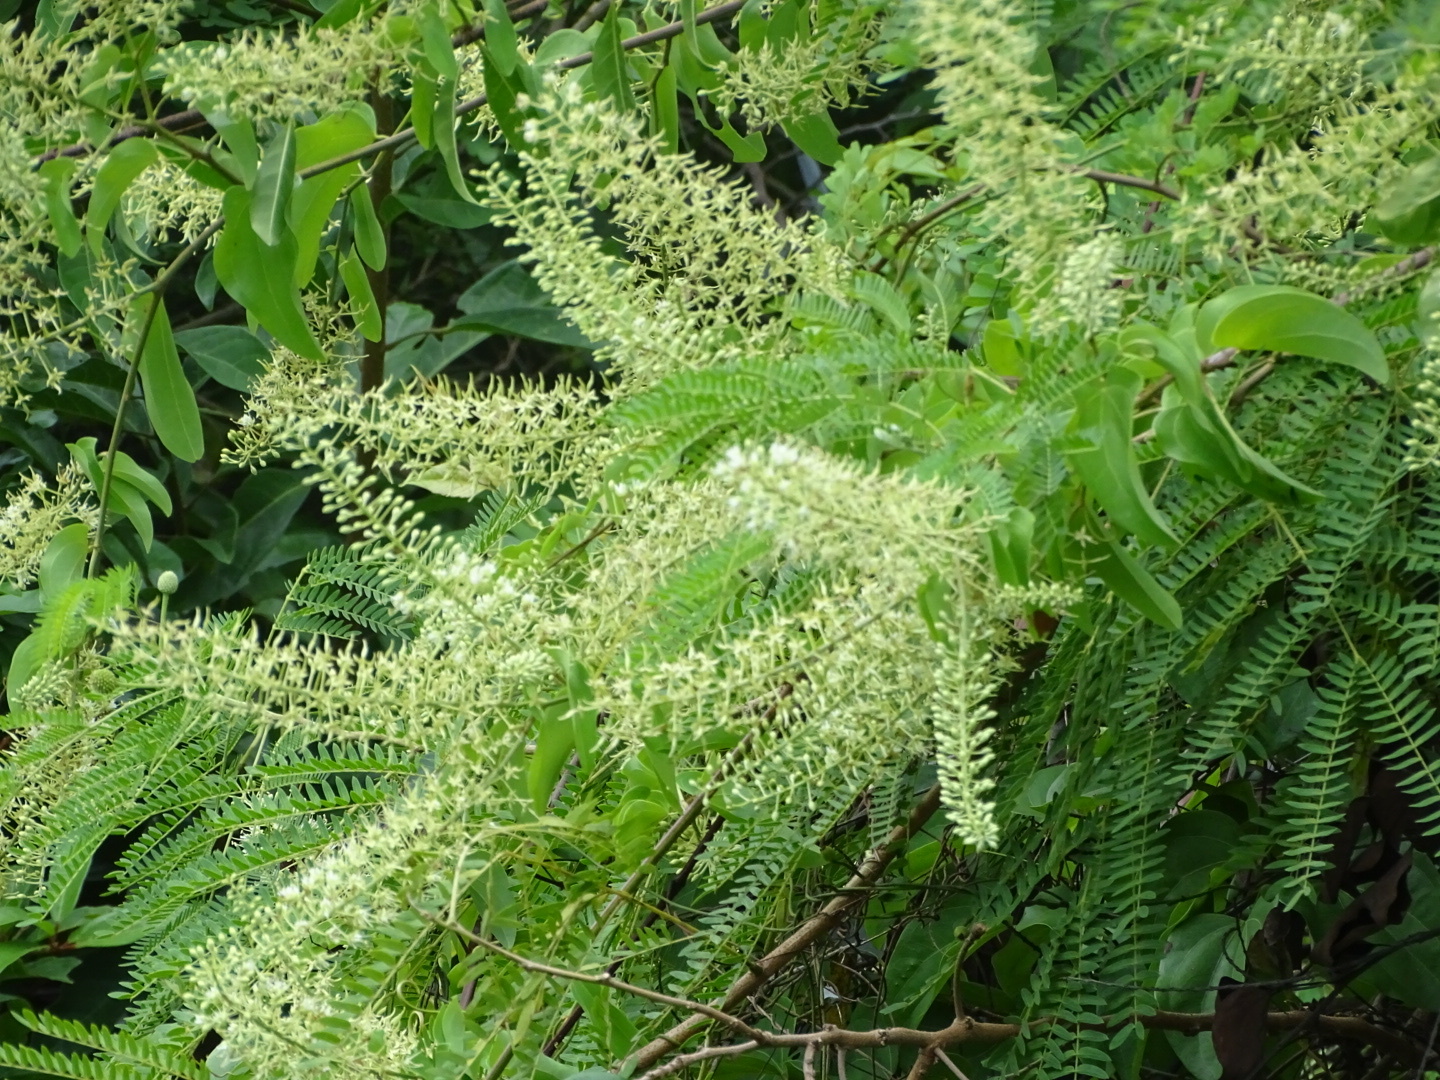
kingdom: Plantae
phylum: Tracheophyta
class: Magnoliopsida
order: Fabales
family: Fabaceae
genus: Phanera
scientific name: Phanera championii
